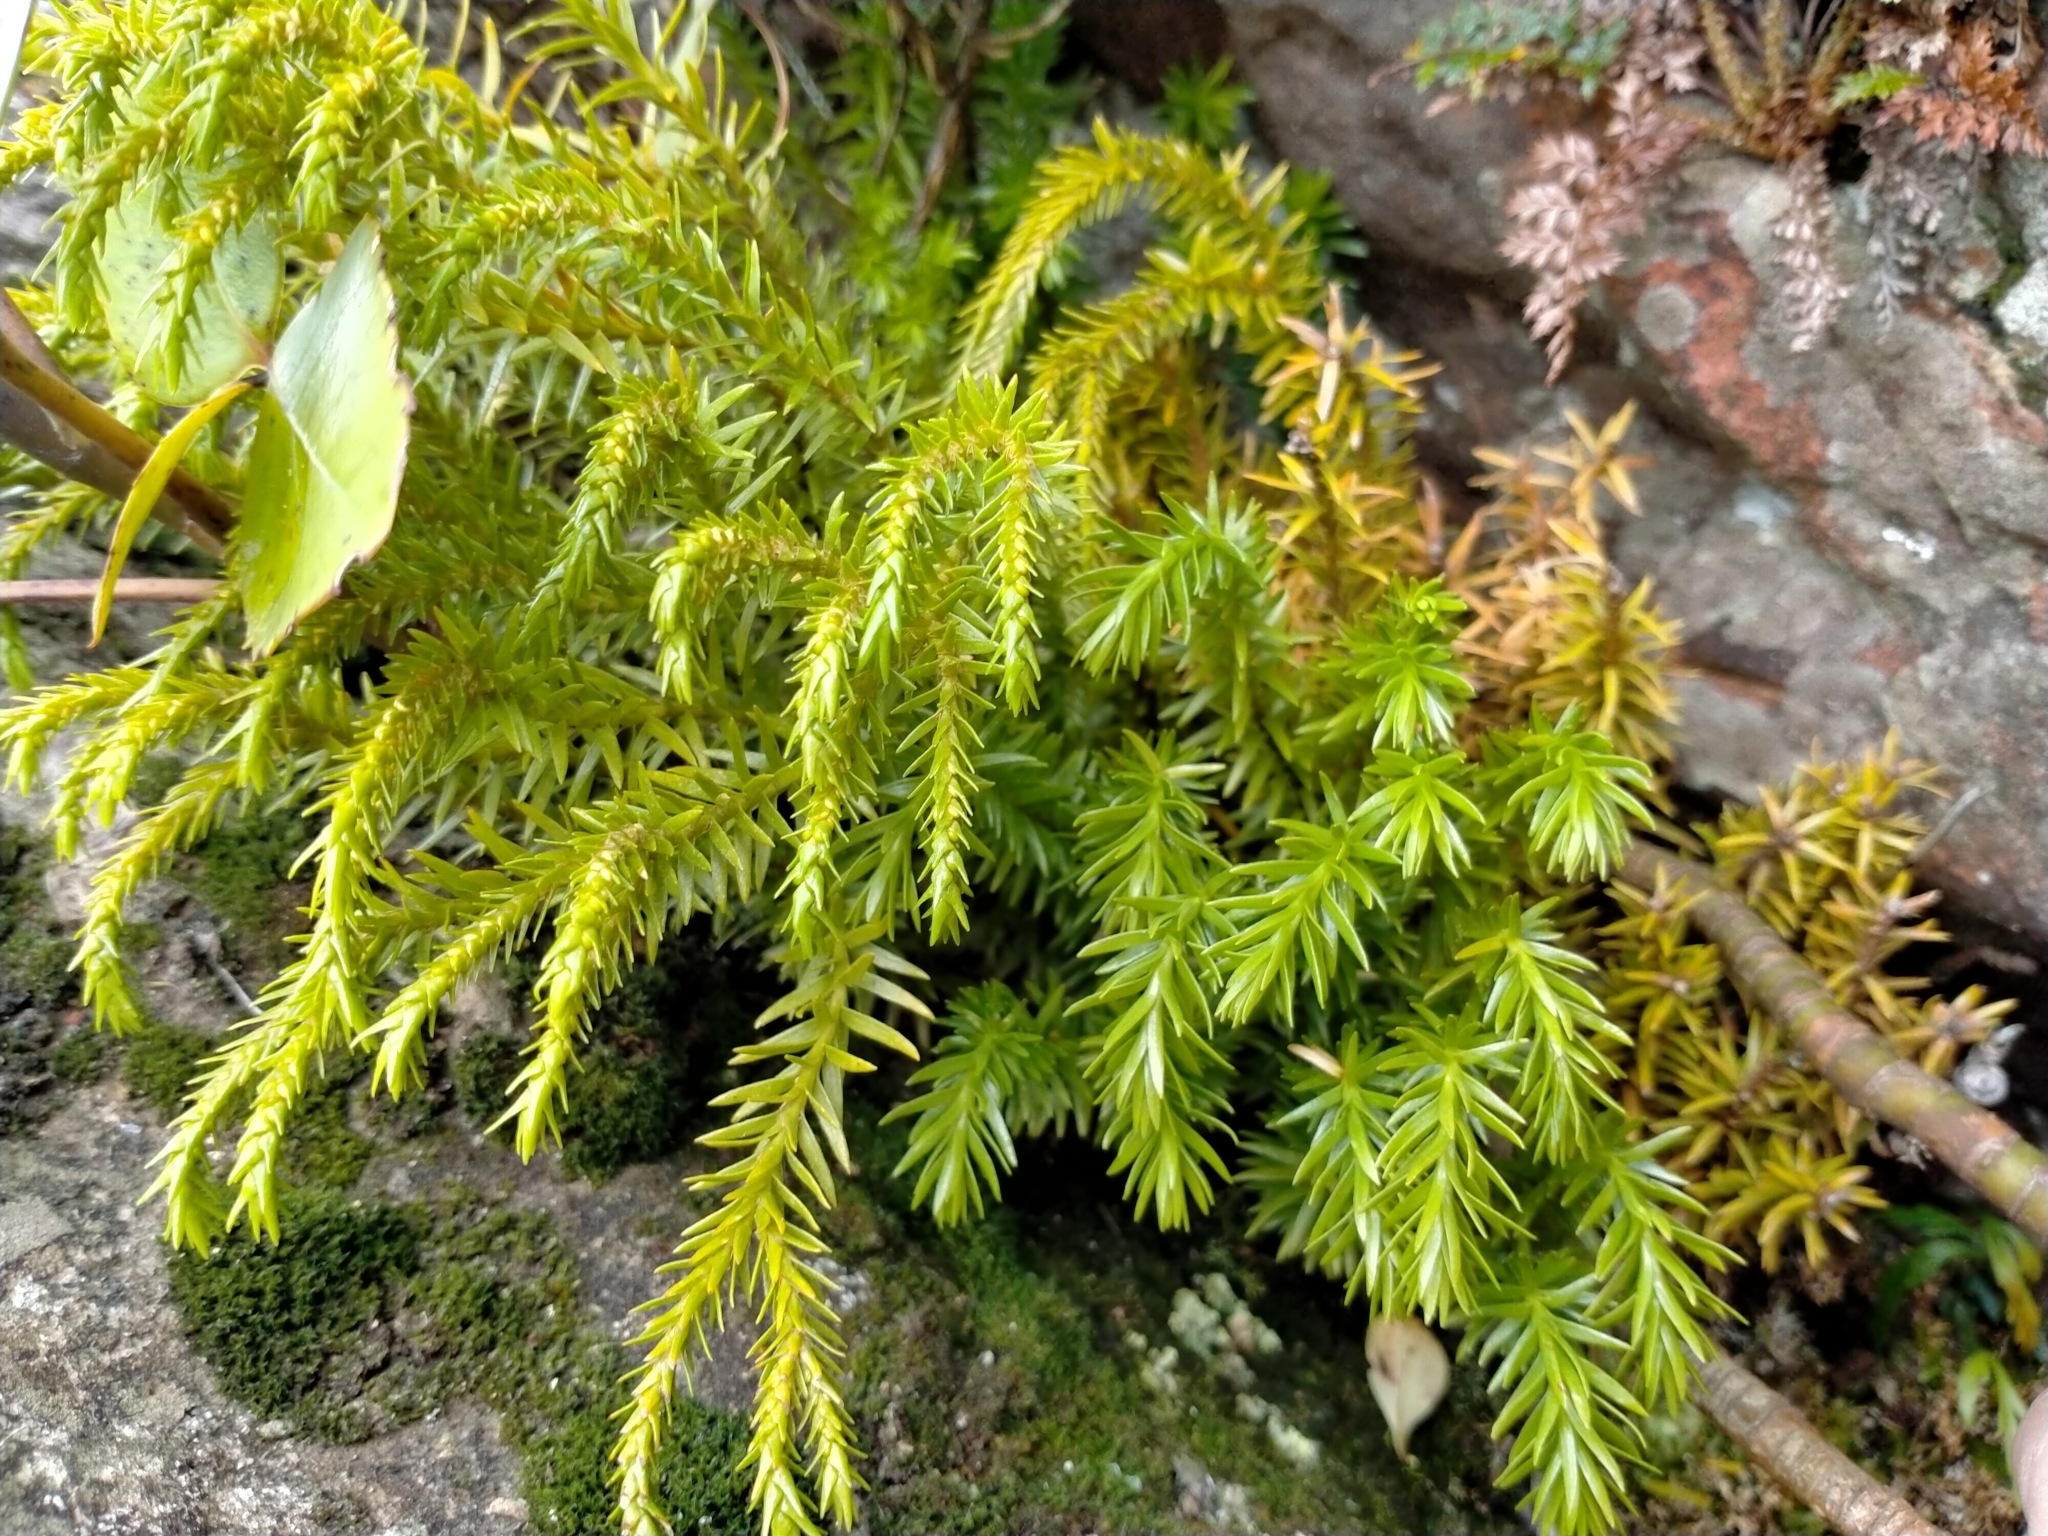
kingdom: Plantae
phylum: Tracheophyta
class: Lycopodiopsida
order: Lycopodiales
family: Lycopodiaceae
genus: Phlegmariurus
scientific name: Phlegmariurus varius
